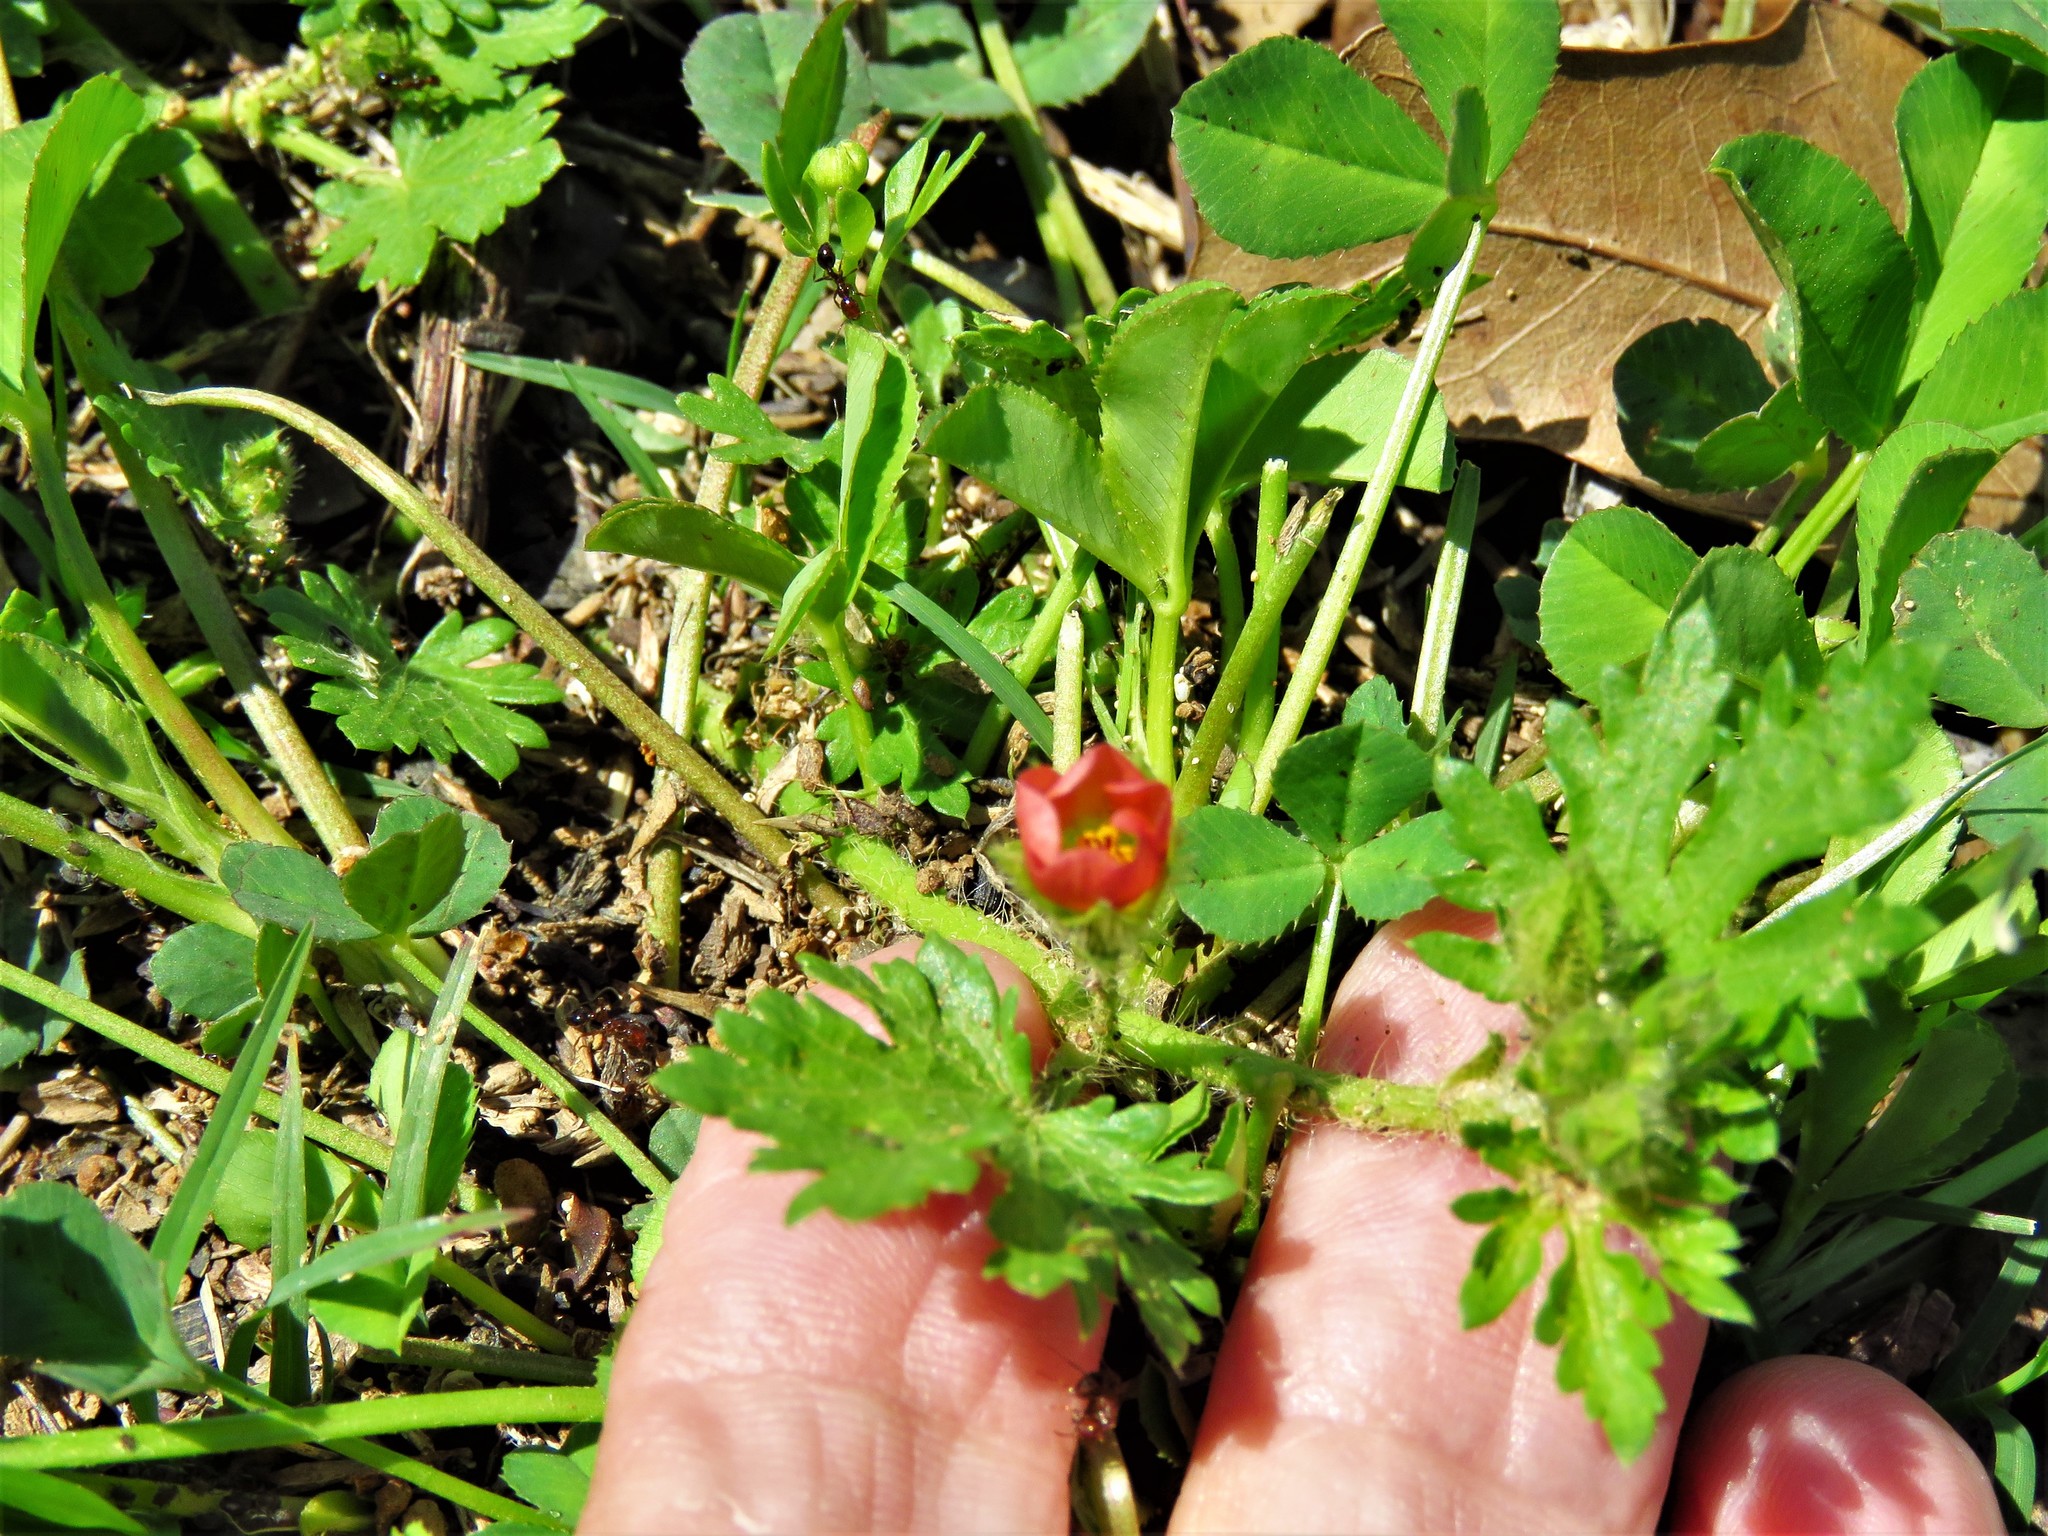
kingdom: Plantae
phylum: Tracheophyta
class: Magnoliopsida
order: Malvales
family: Malvaceae
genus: Modiola
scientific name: Modiola caroliniana
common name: Carolina bristlemallow
